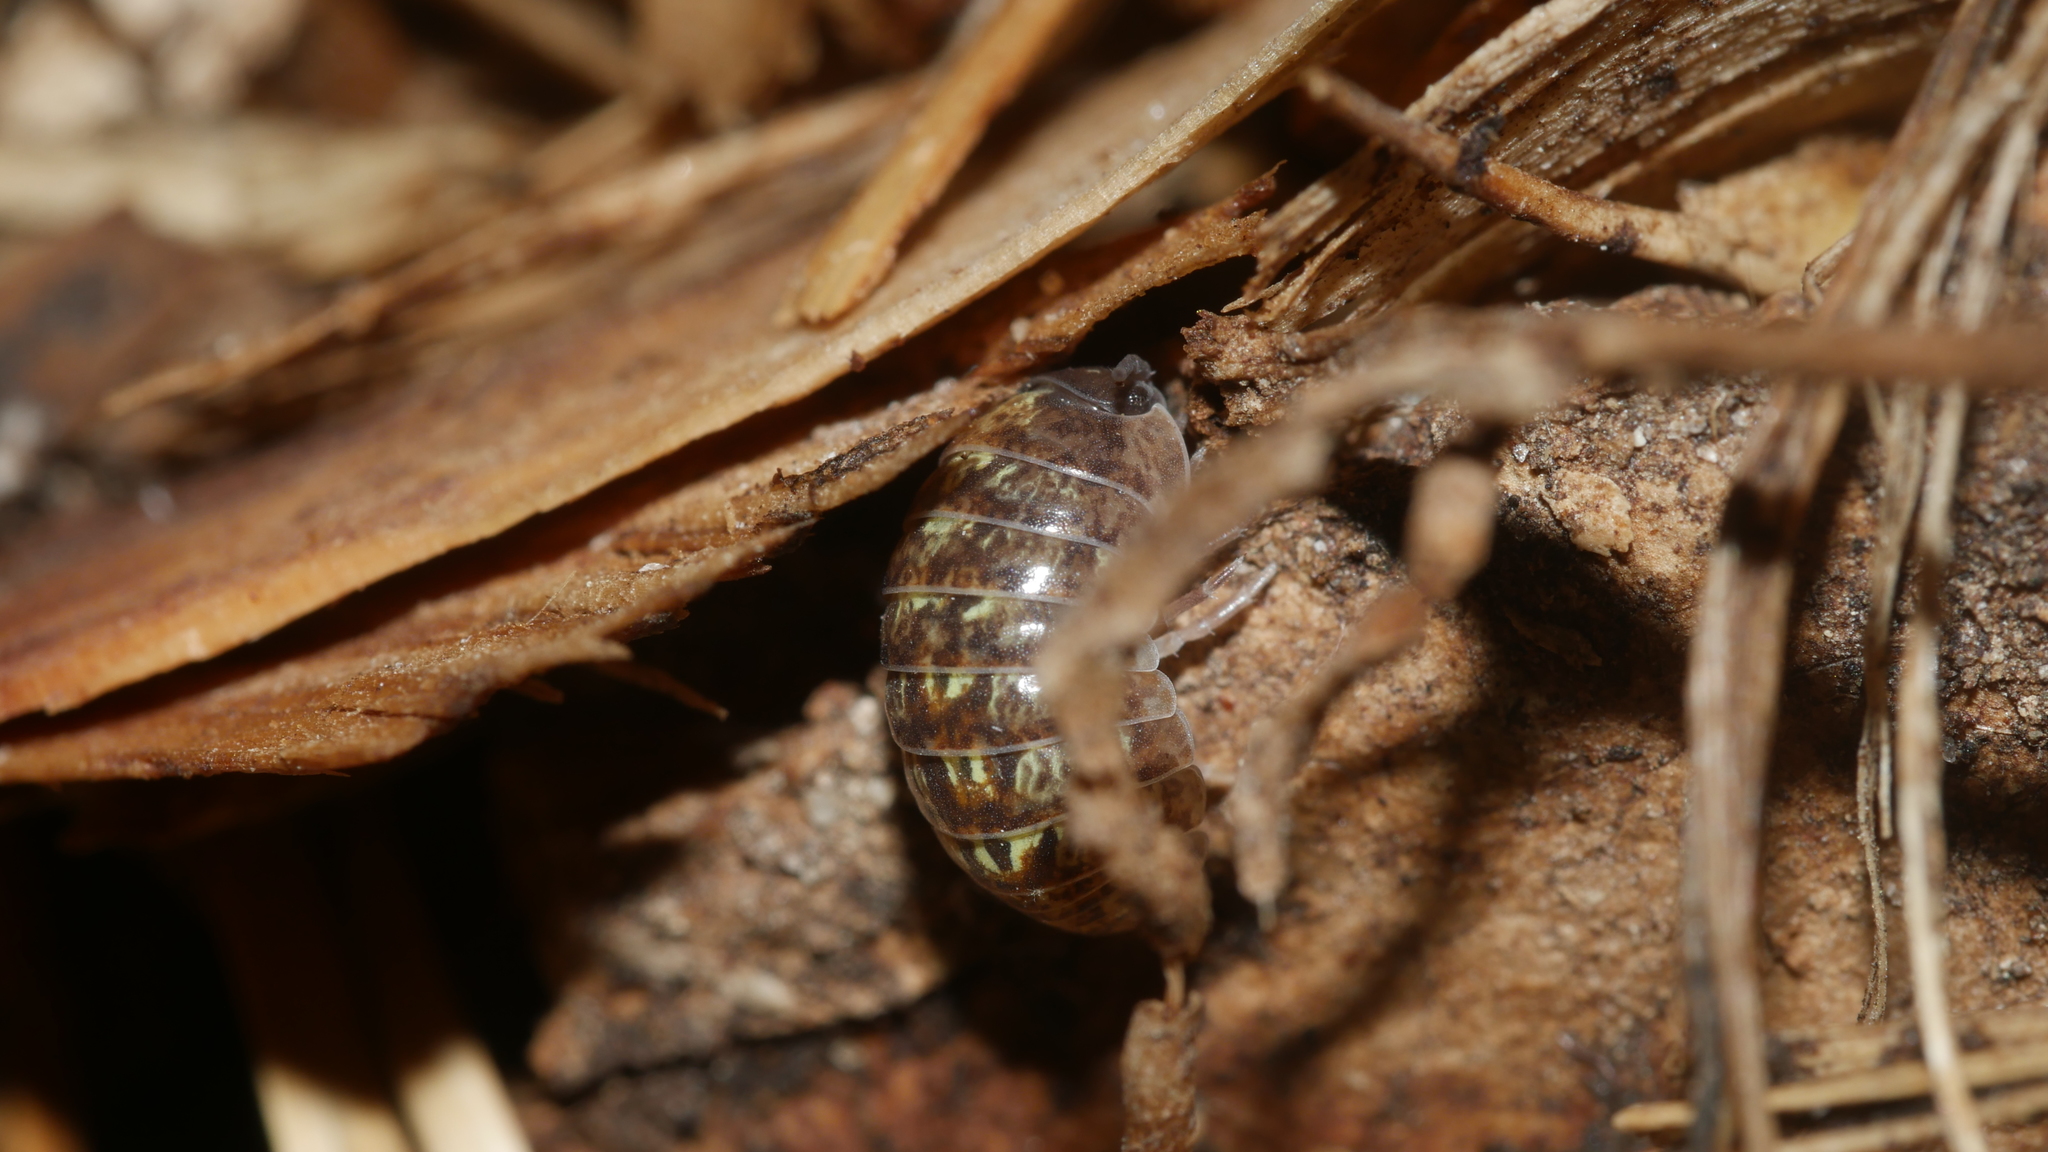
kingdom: Animalia
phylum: Arthropoda
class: Malacostraca
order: Isopoda
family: Armadillidiidae
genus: Armadillidium
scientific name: Armadillidium vulgare
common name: Common pill woodlouse
